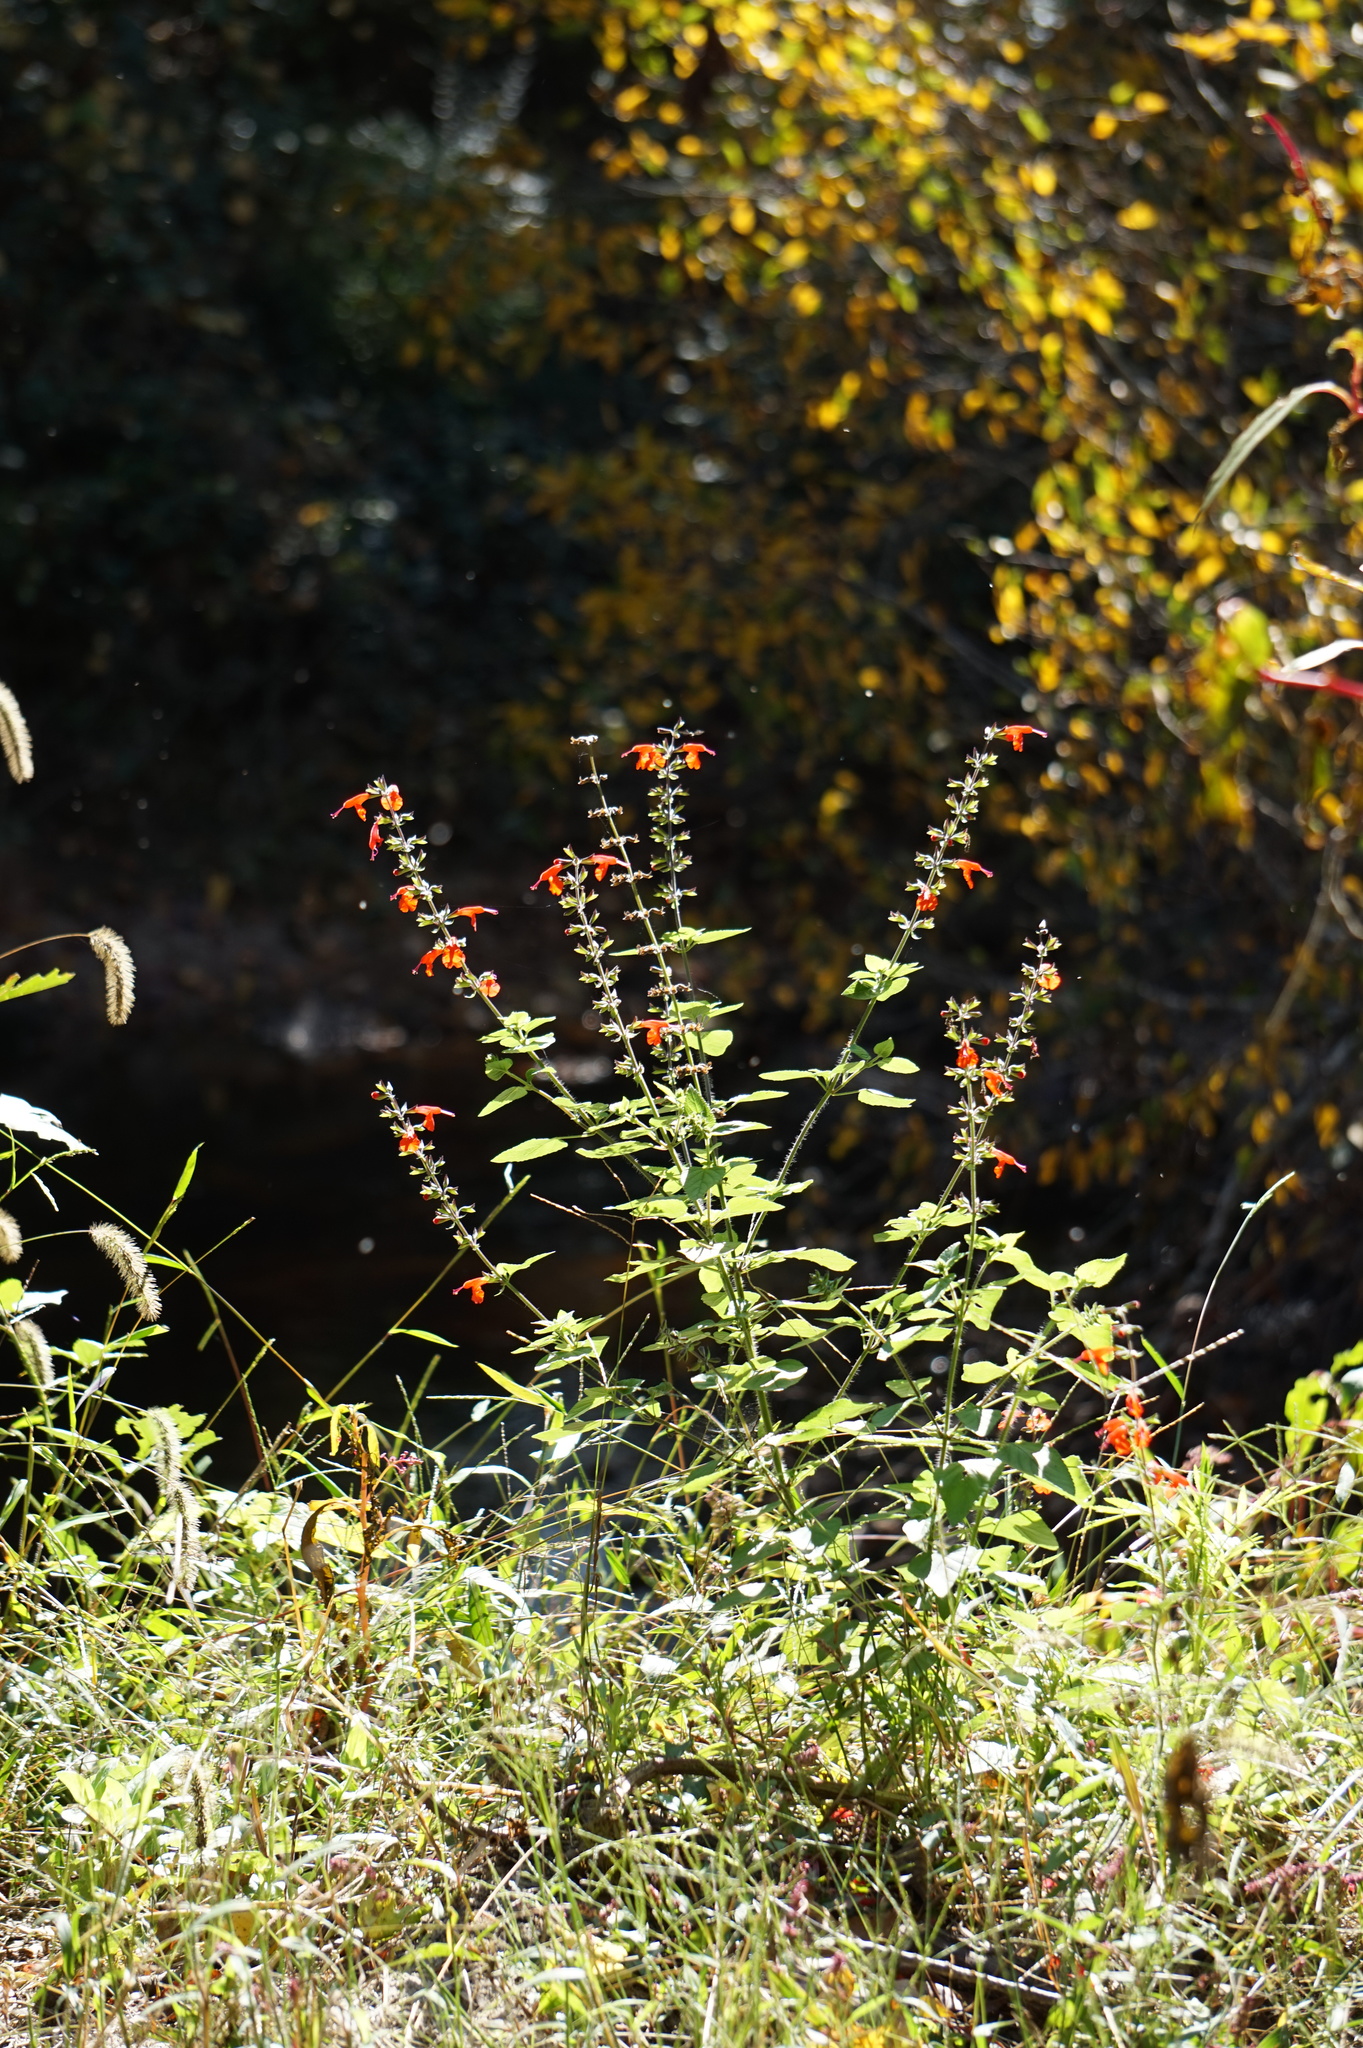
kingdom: Plantae
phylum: Tracheophyta
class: Magnoliopsida
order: Lamiales
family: Lamiaceae
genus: Salvia
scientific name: Salvia coccinea
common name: Blood sage
